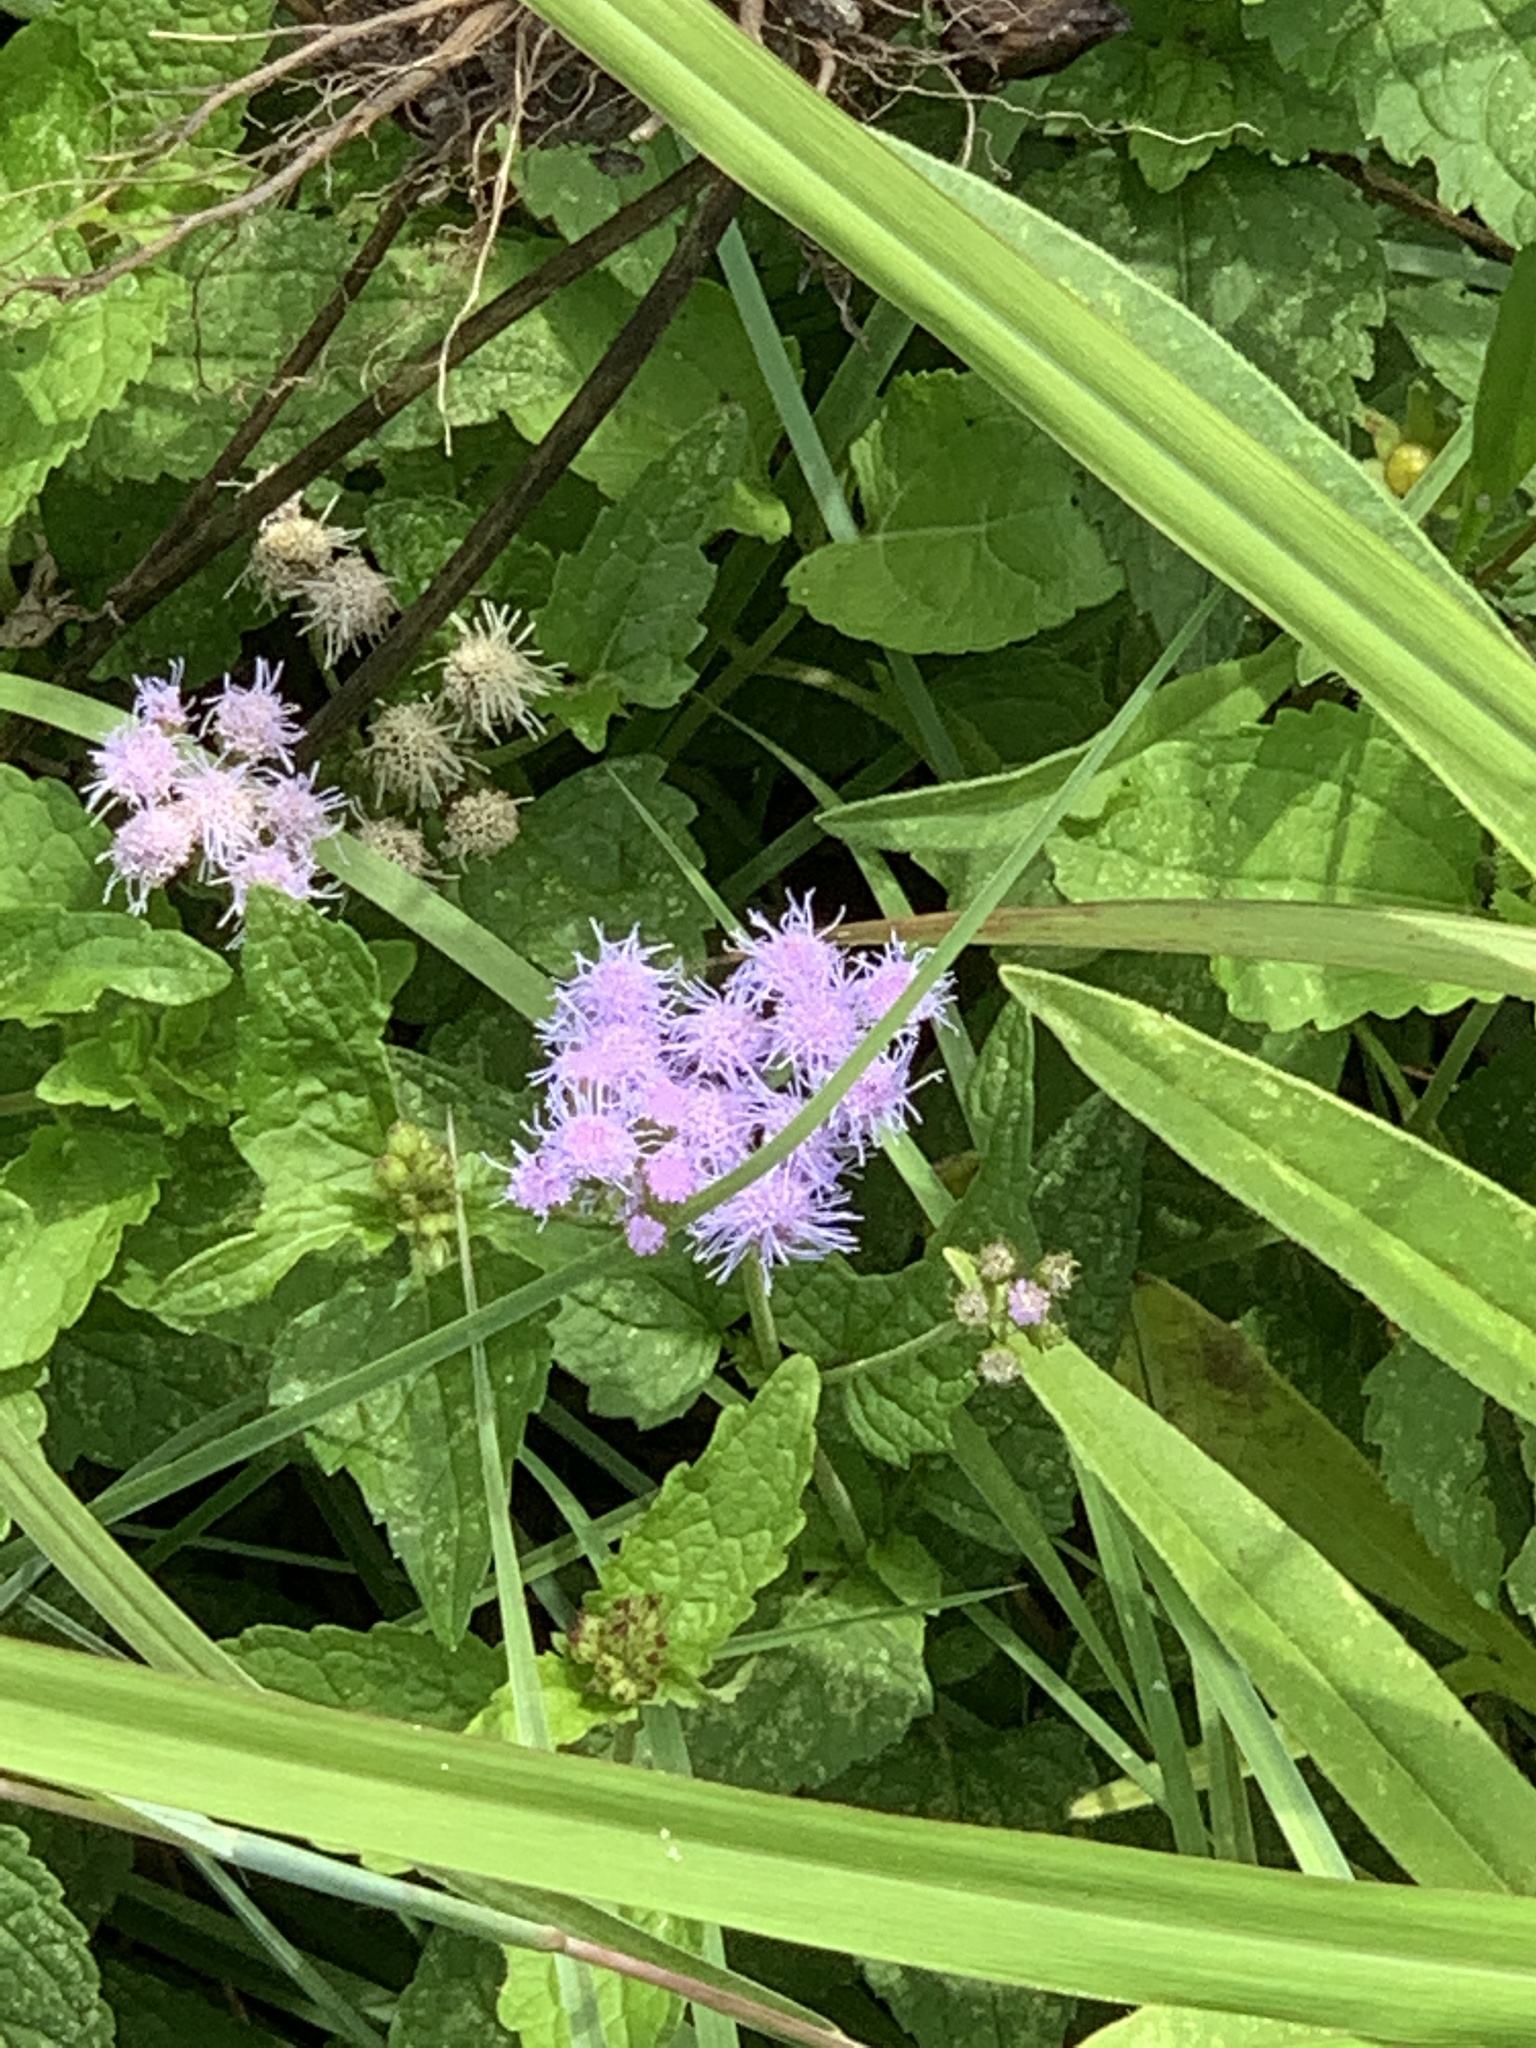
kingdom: Plantae
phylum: Tracheophyta
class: Magnoliopsida
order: Asterales
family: Asteraceae
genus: Conoclinium
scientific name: Conoclinium coelestinum
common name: Blue mistflower
